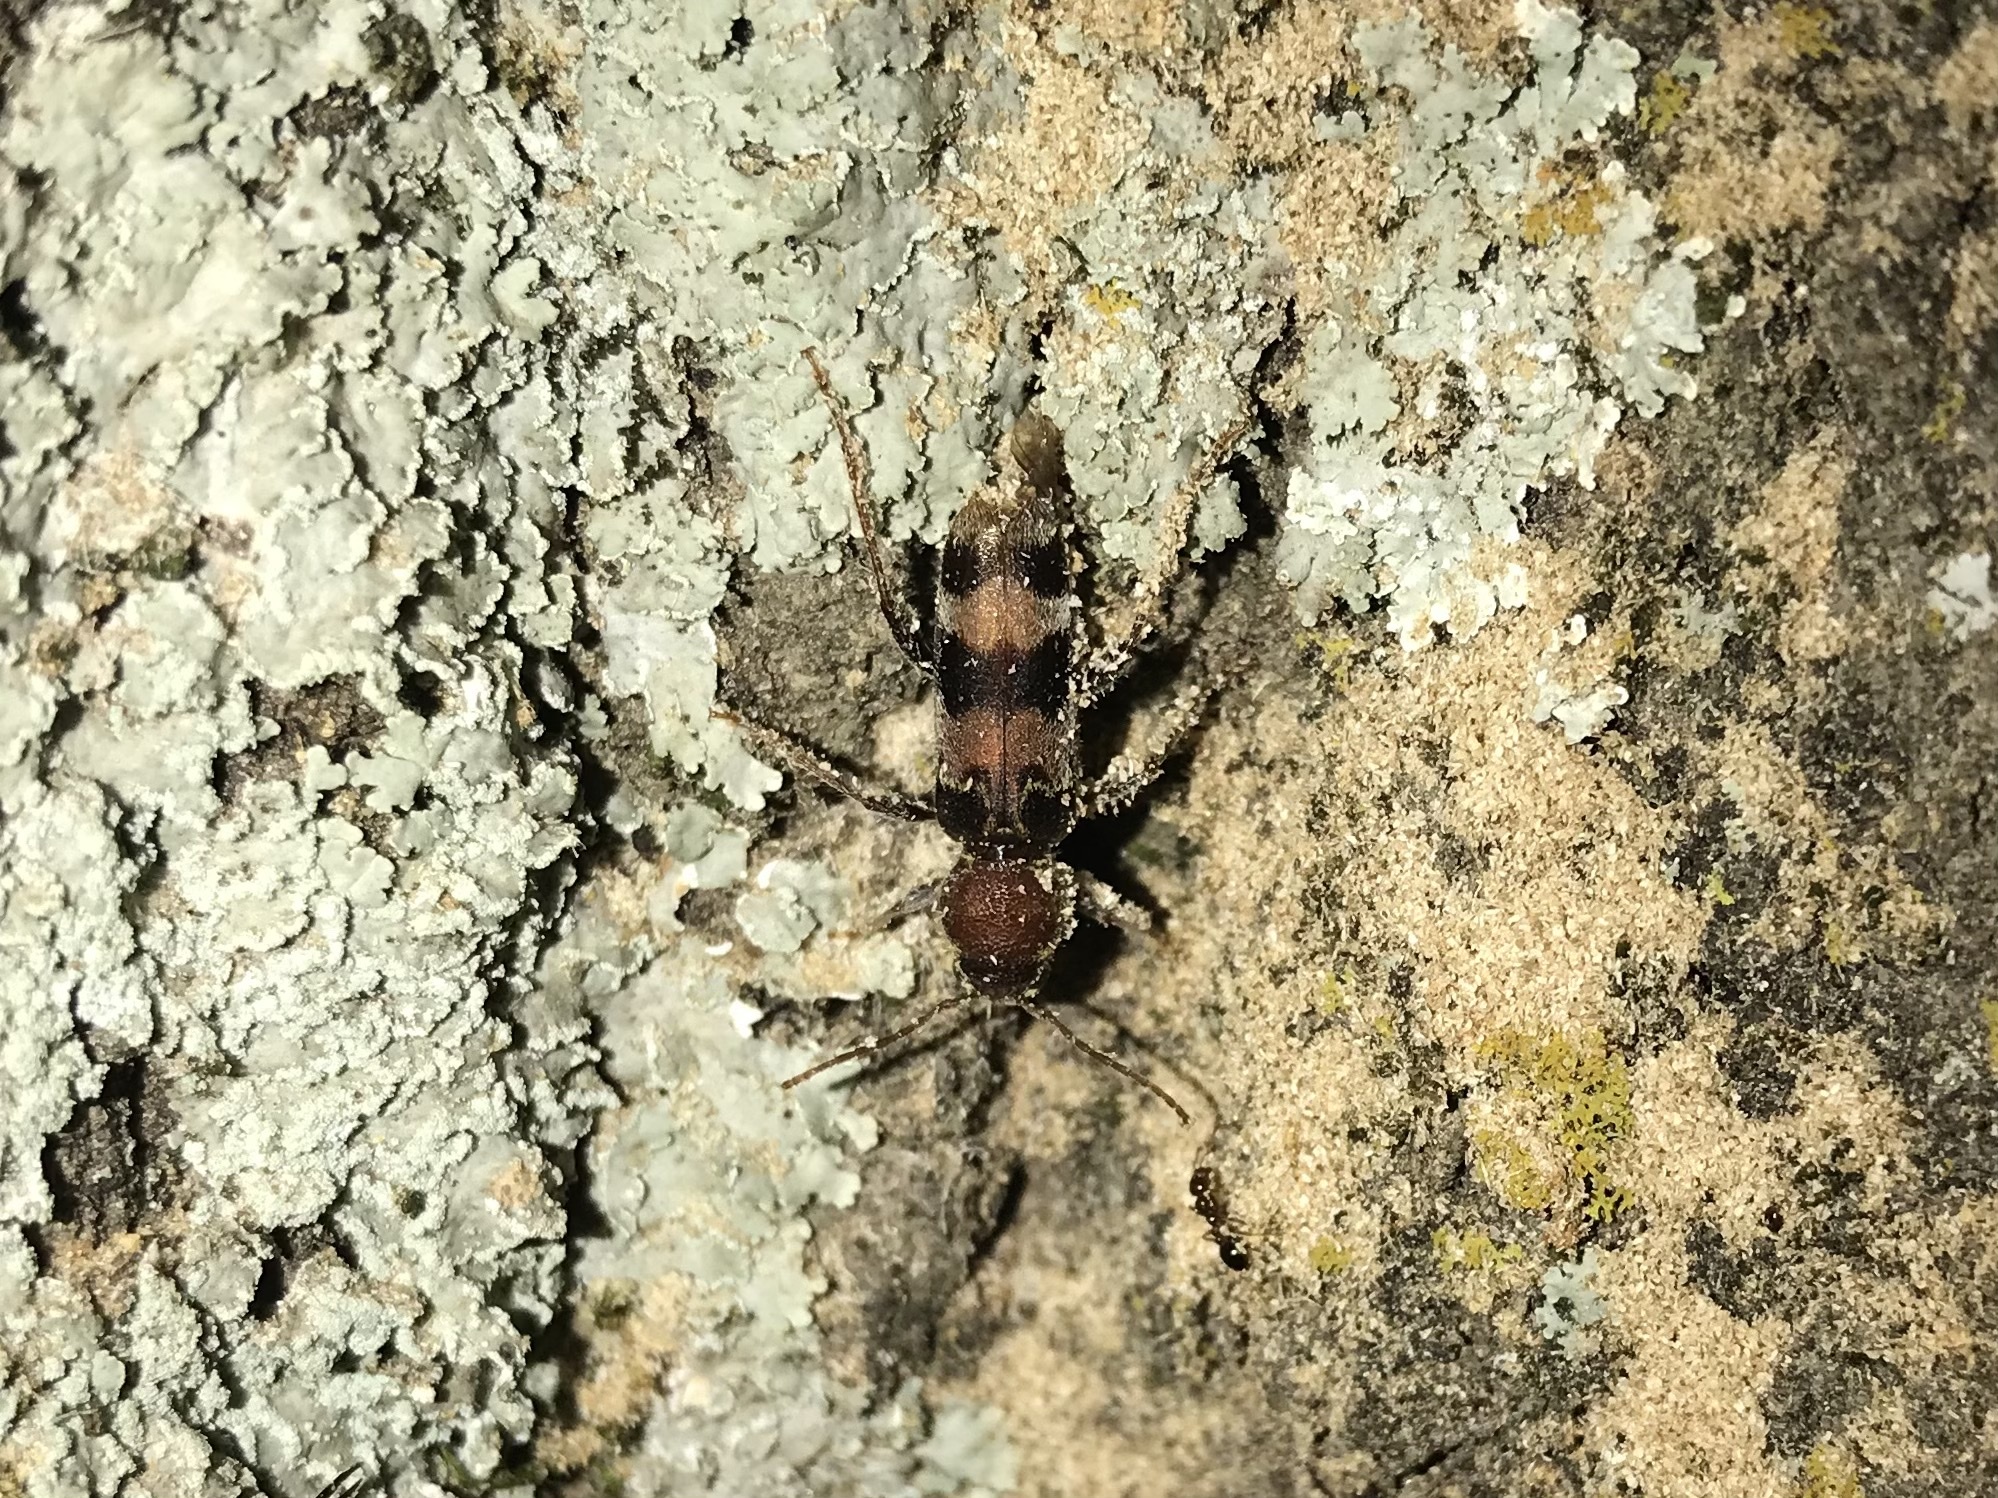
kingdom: Animalia
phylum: Arthropoda
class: Insecta
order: Coleoptera
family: Cerambycidae
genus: Xylotrechus
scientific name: Xylotrechus colonus
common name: Long-horned beetle
